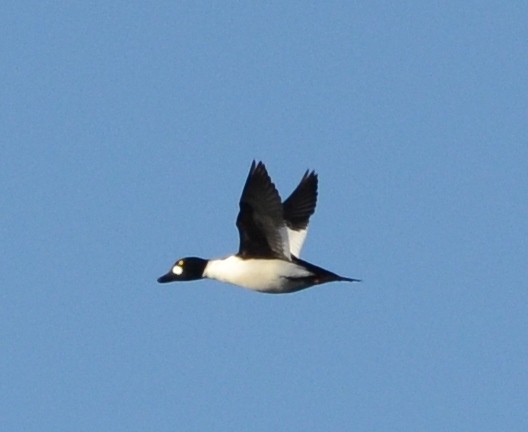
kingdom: Animalia
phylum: Chordata
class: Aves
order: Anseriformes
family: Anatidae
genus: Bucephala
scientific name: Bucephala clangula
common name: Common goldeneye
